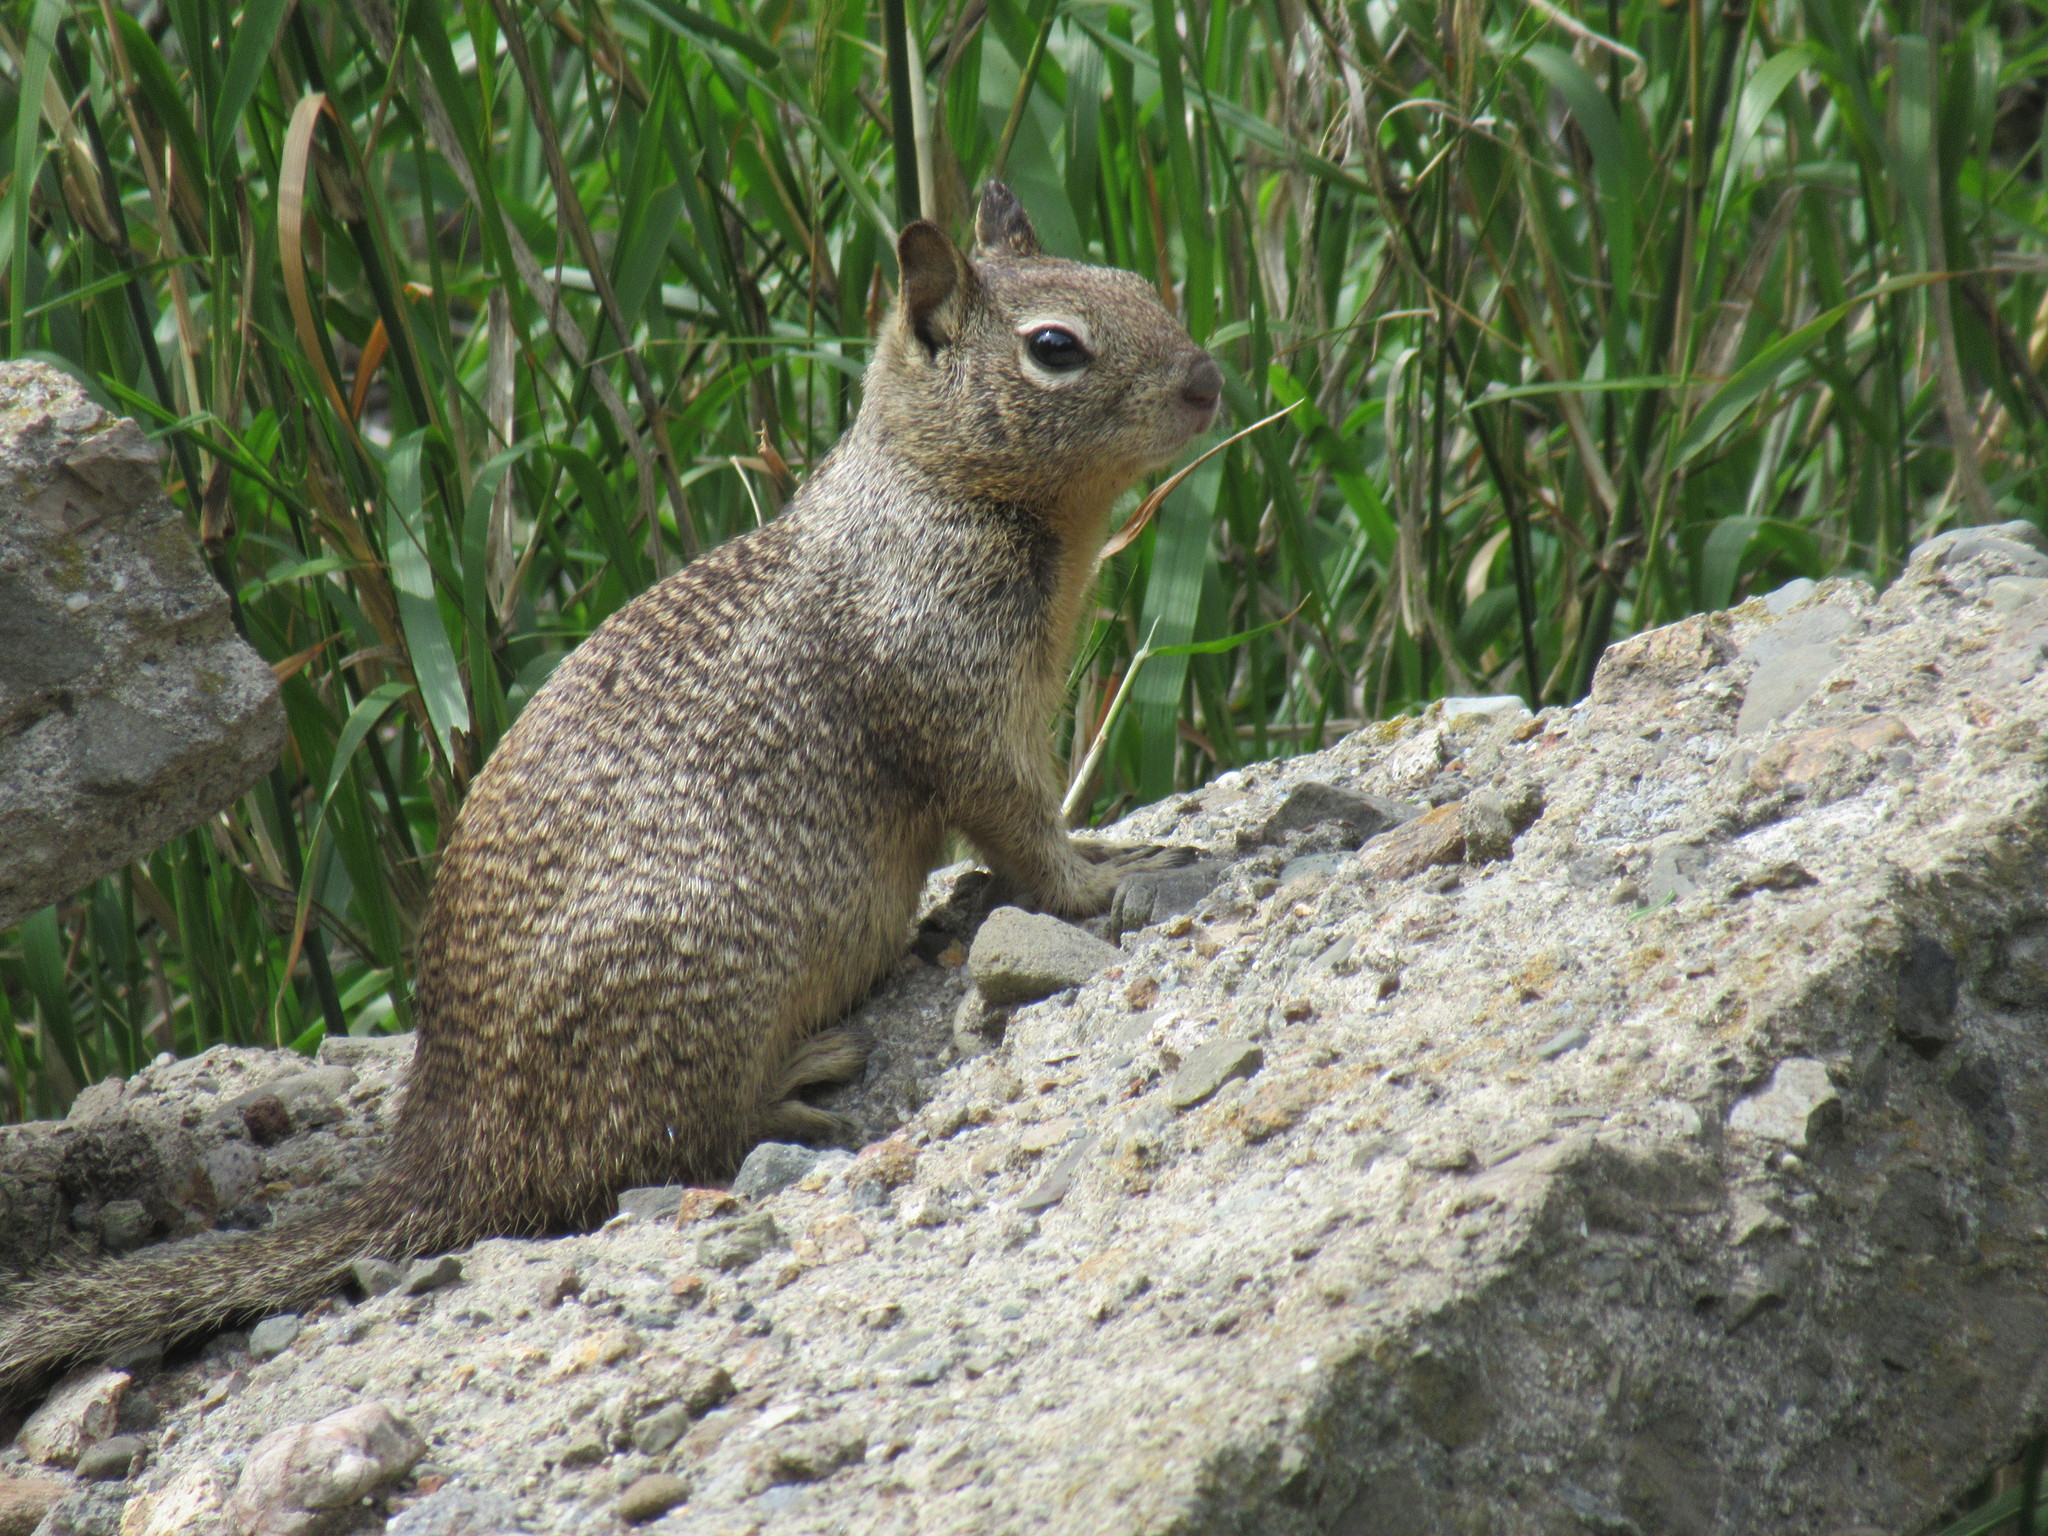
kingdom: Animalia
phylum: Chordata
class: Mammalia
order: Rodentia
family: Sciuridae
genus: Otospermophilus
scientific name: Otospermophilus beecheyi
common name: California ground squirrel
